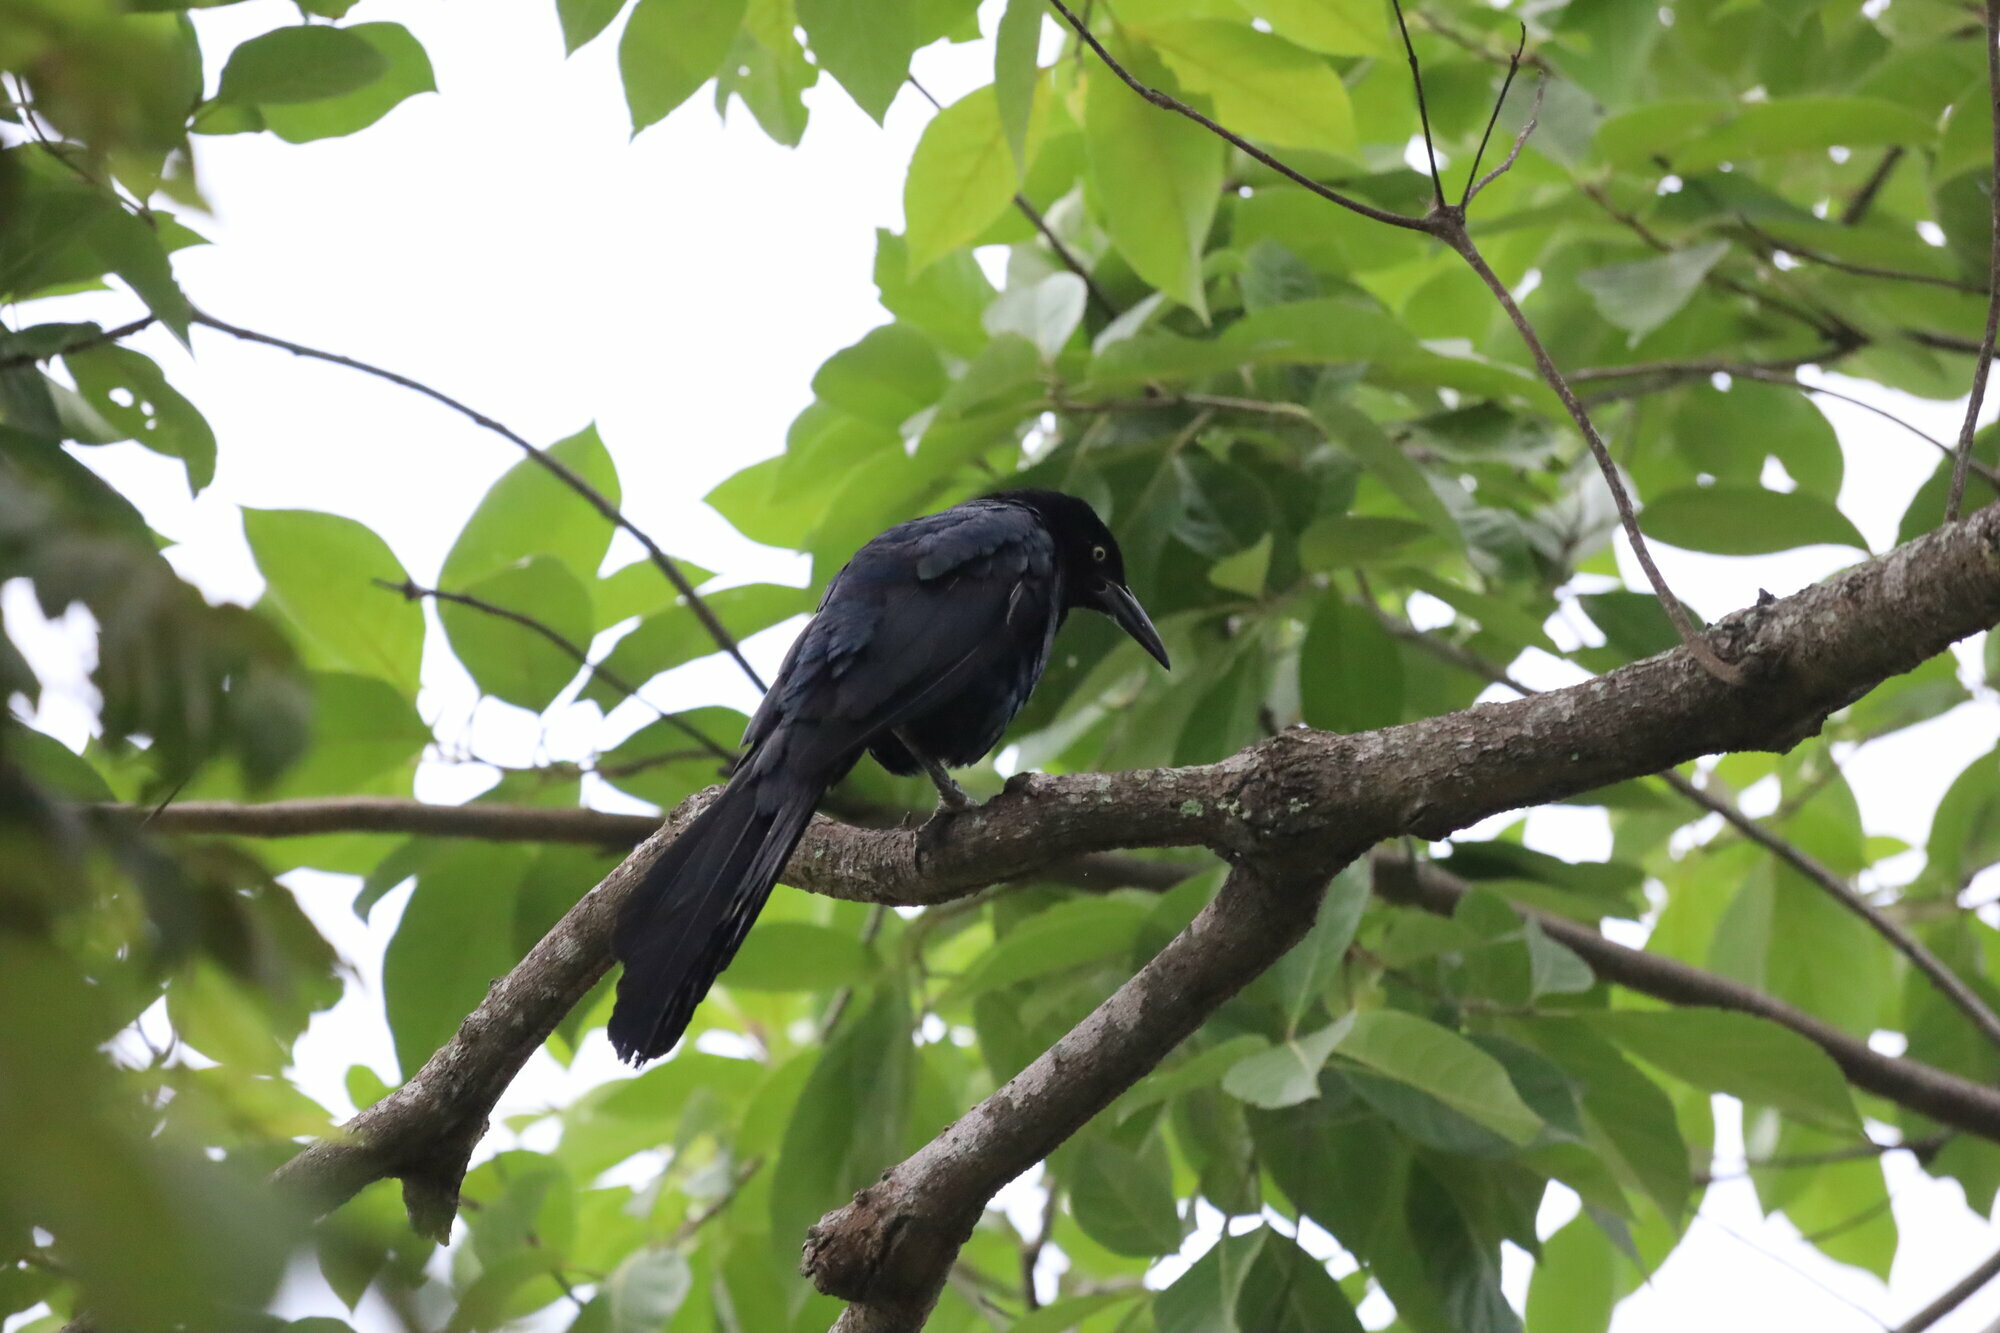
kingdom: Animalia
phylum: Chordata
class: Aves
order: Passeriformes
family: Icteridae
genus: Quiscalus
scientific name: Quiscalus mexicanus
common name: Great-tailed grackle
